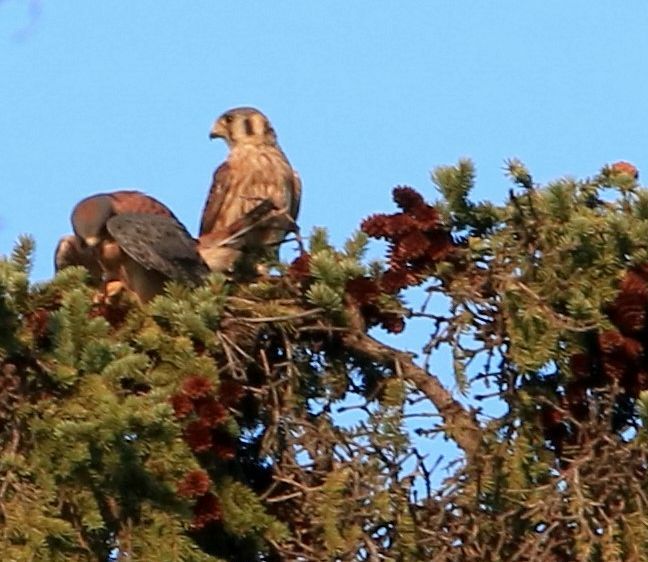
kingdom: Animalia
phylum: Chordata
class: Aves
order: Falconiformes
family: Falconidae
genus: Falco
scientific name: Falco sparverius
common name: American kestrel
